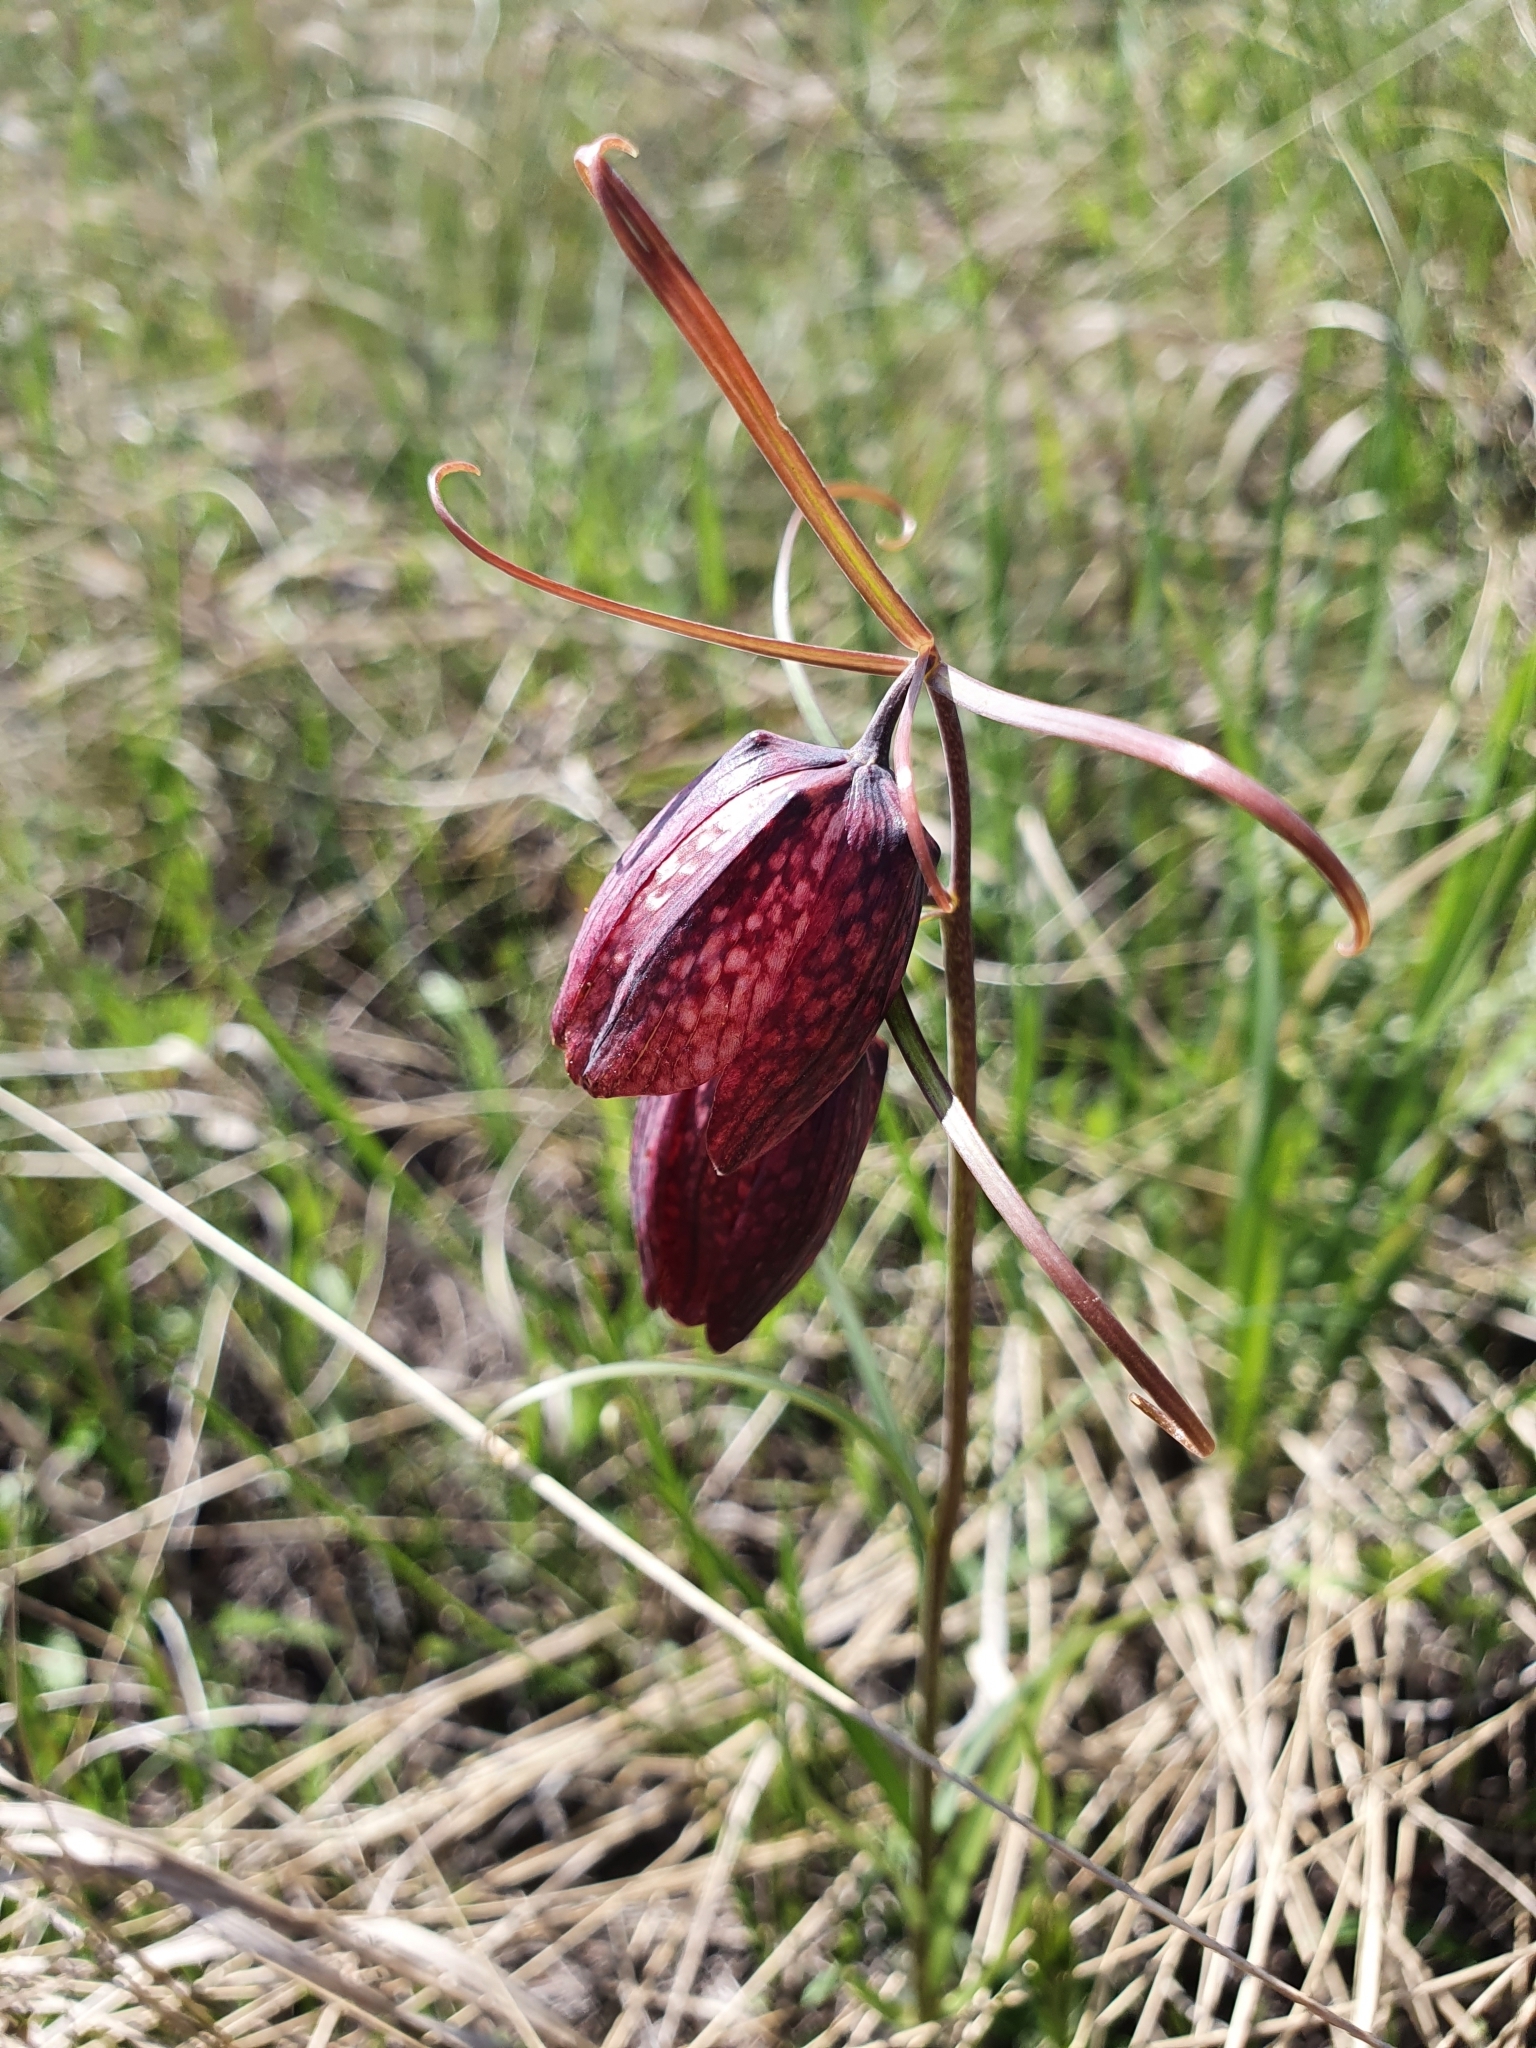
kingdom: Plantae
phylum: Tracheophyta
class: Liliopsida
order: Liliales
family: Liliaceae
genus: Fritillaria
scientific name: Fritillaria ruthenica
